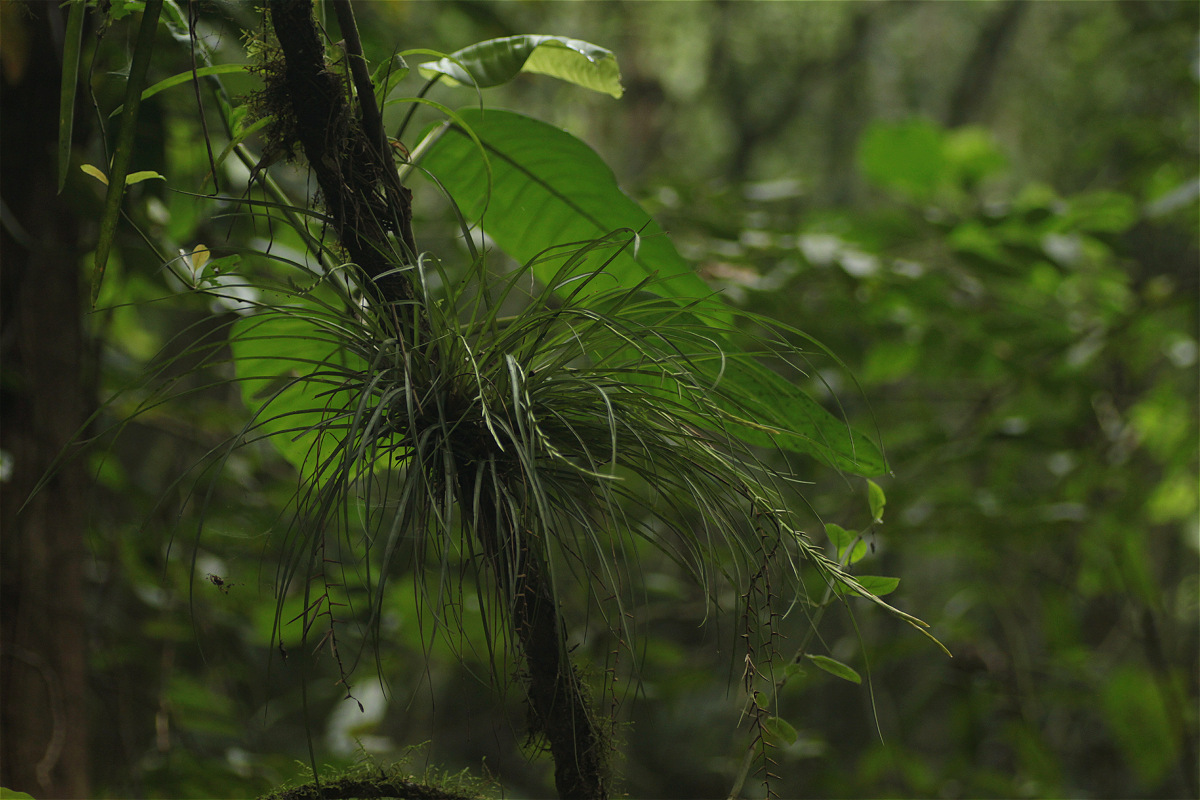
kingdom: Plantae
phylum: Tracheophyta
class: Liliopsida
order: Poales
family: Bromeliaceae
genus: Lemeltonia
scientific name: Lemeltonia narthecioides
